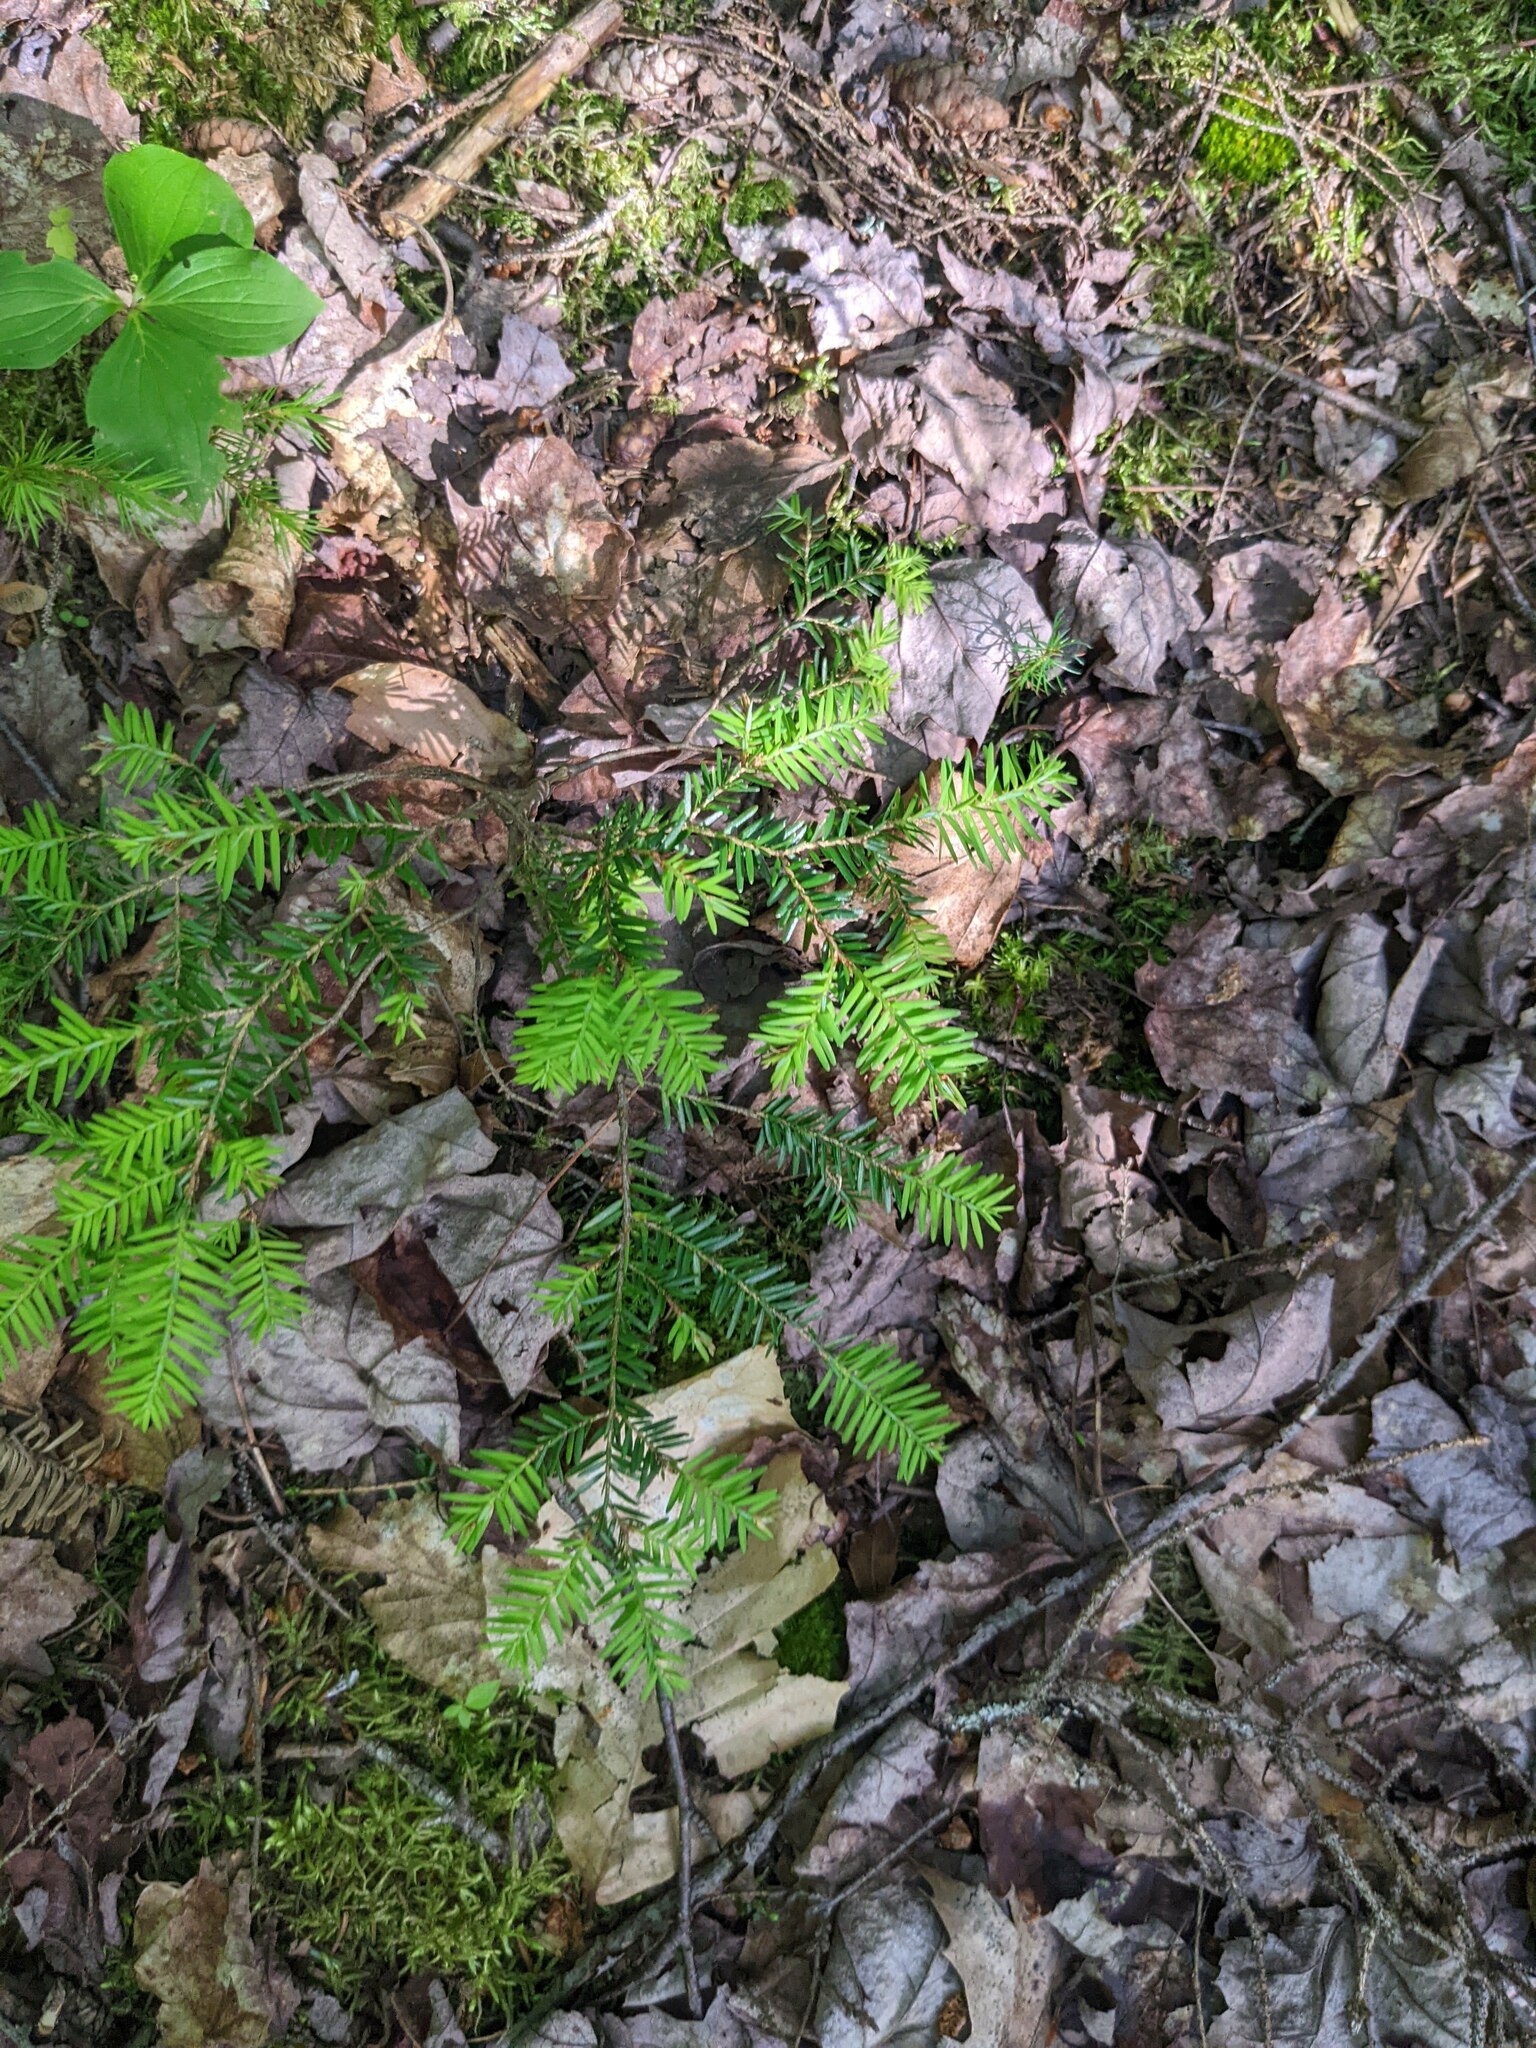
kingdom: Plantae
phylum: Tracheophyta
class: Pinopsida
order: Pinales
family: Pinaceae
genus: Tsuga
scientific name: Tsuga canadensis
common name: Eastern hemlock
